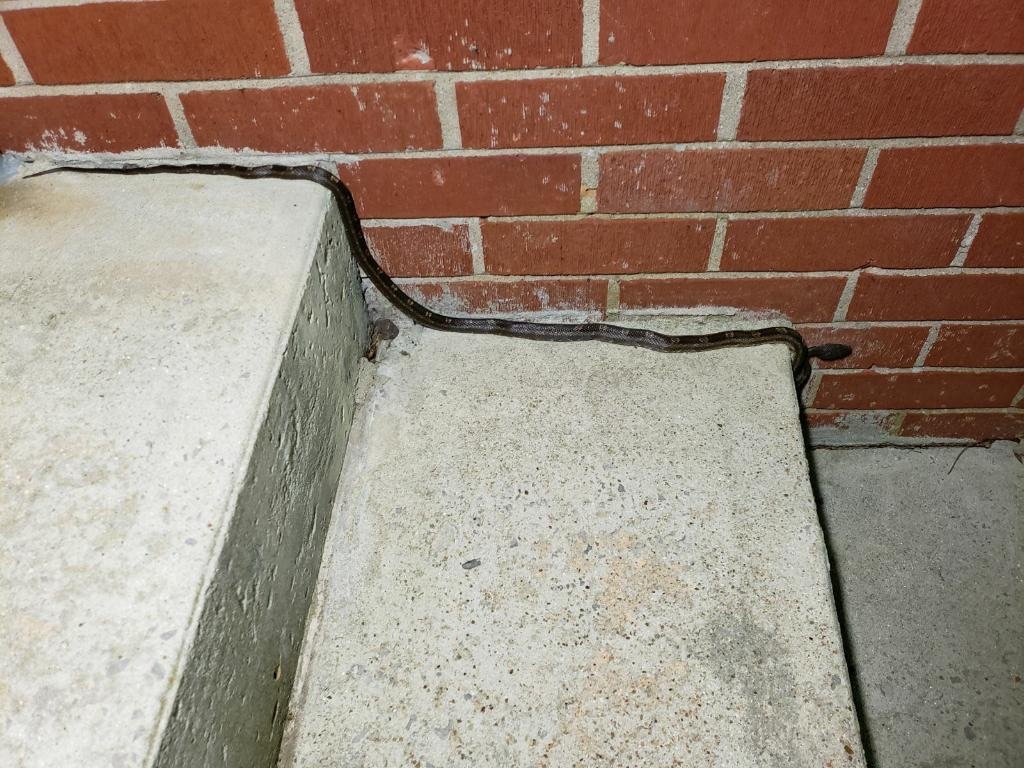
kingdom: Animalia
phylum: Chordata
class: Squamata
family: Colubridae
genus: Pantherophis
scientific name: Pantherophis spiloides
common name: Gray rat snake
